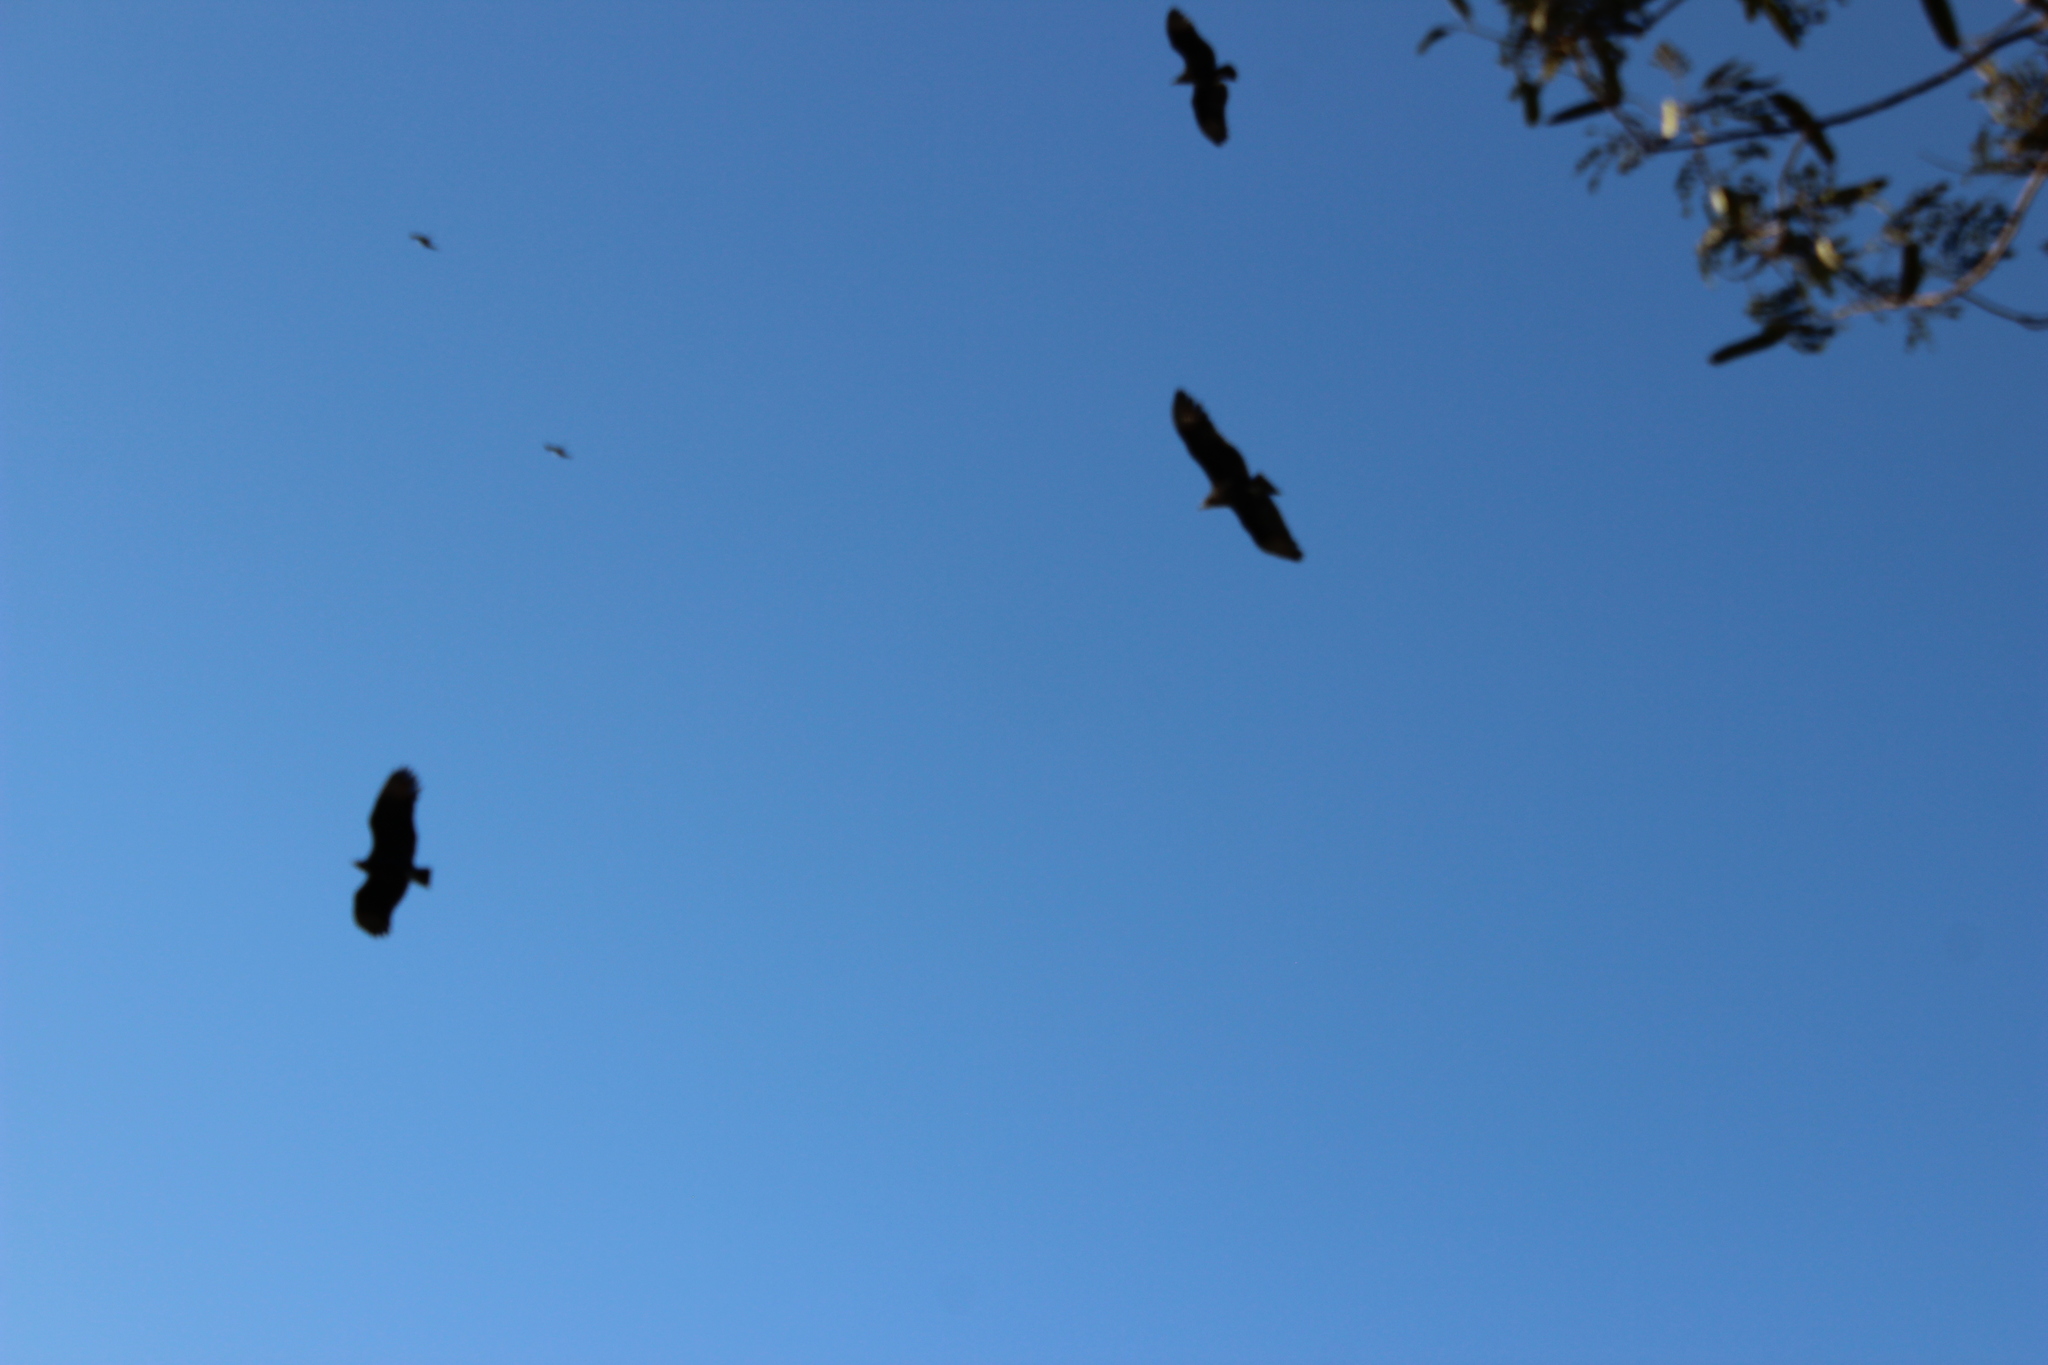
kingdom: Animalia
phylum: Chordata
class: Aves
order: Accipitriformes
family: Cathartidae
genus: Coragyps
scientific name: Coragyps atratus
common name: Black vulture
